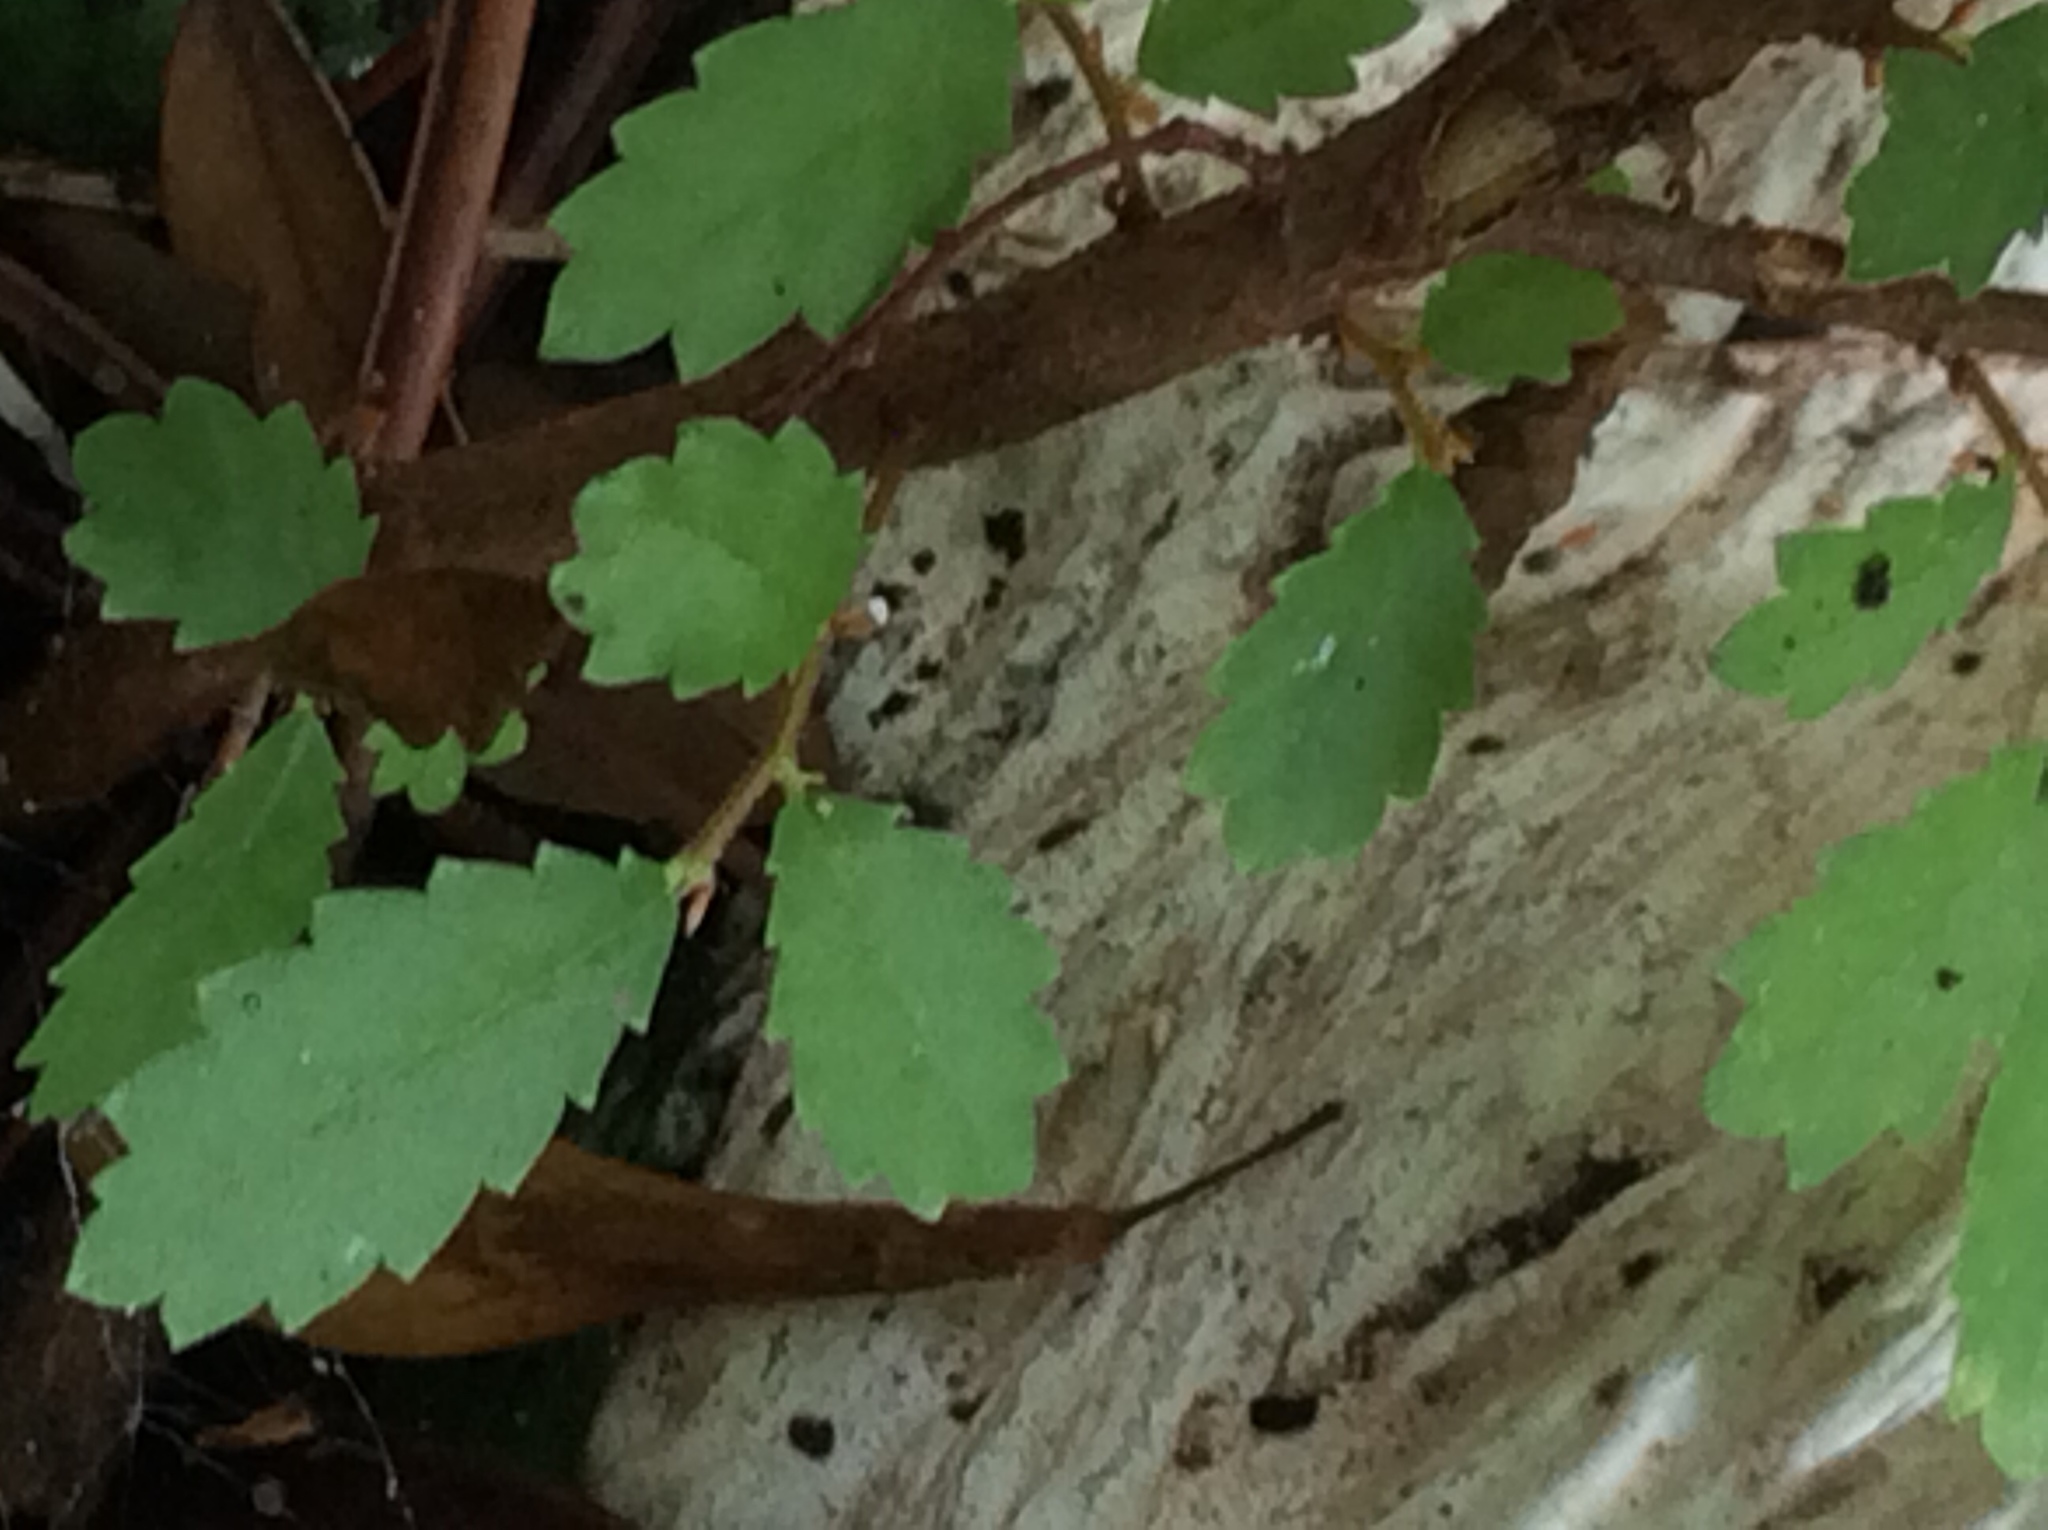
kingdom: Plantae
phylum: Tracheophyta
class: Magnoliopsida
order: Rosales
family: Ulmaceae
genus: Ulmus
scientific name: Ulmus crassifolia
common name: Basket elm
